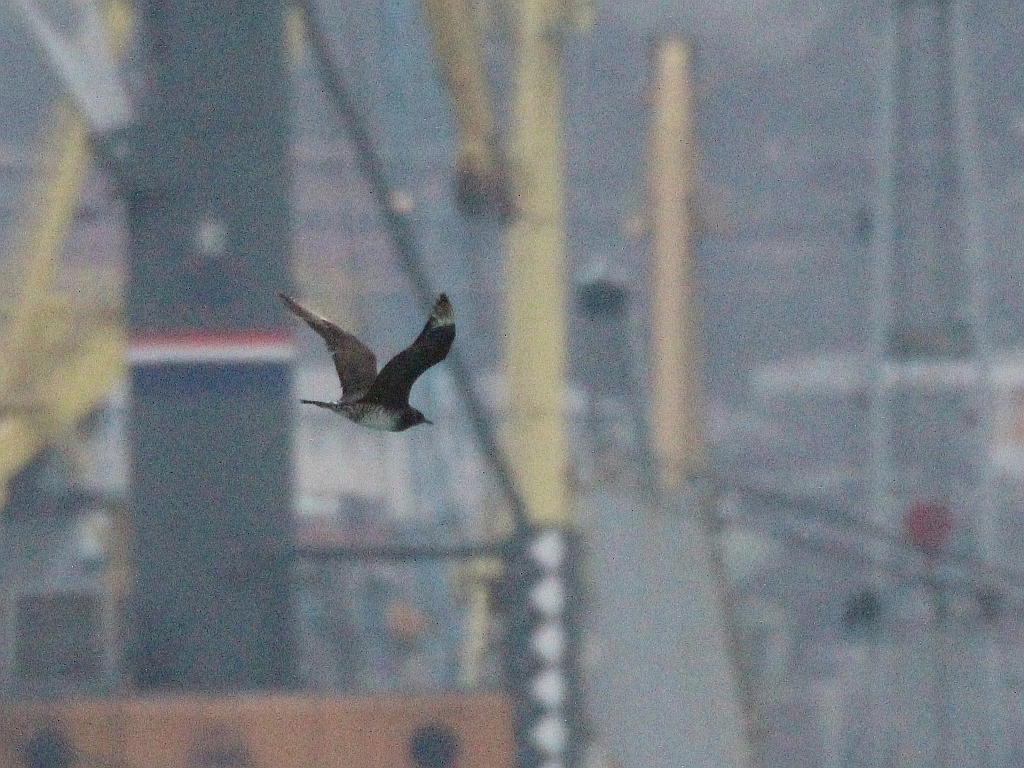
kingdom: Animalia
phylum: Chordata
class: Aves
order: Charadriiformes
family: Stercorariidae
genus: Stercorarius
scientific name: Stercorarius parasiticus
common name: Parasitic jaeger
